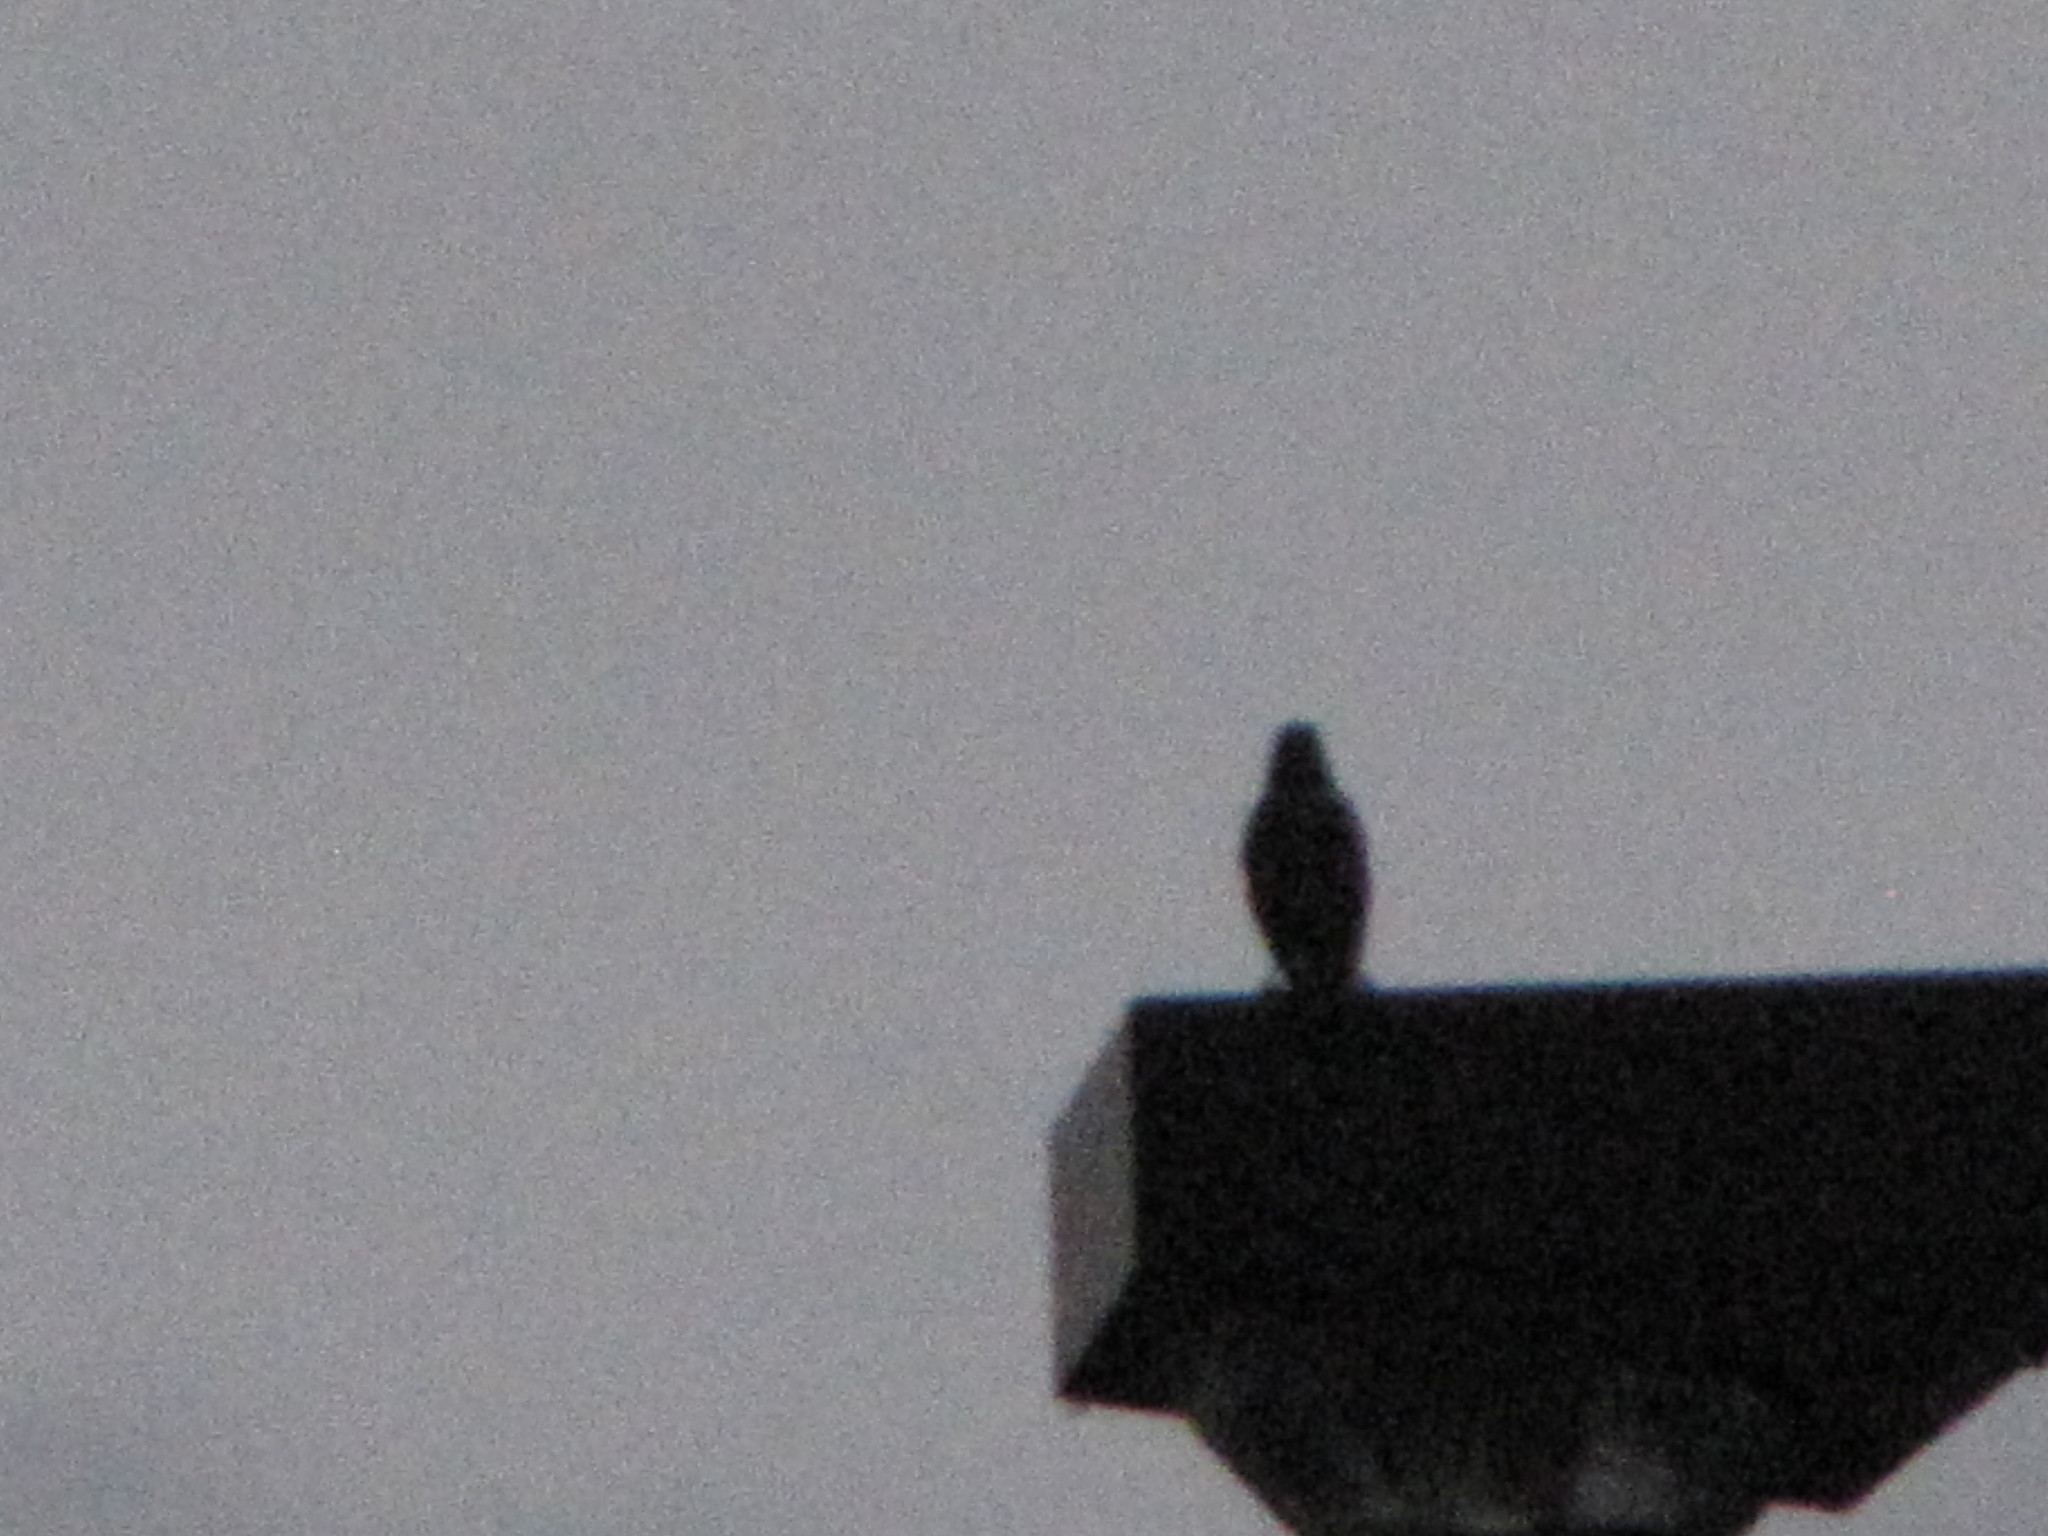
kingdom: Animalia
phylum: Chordata
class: Aves
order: Passeriformes
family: Sturnidae
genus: Sturnus
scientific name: Sturnus vulgaris
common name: Common starling
